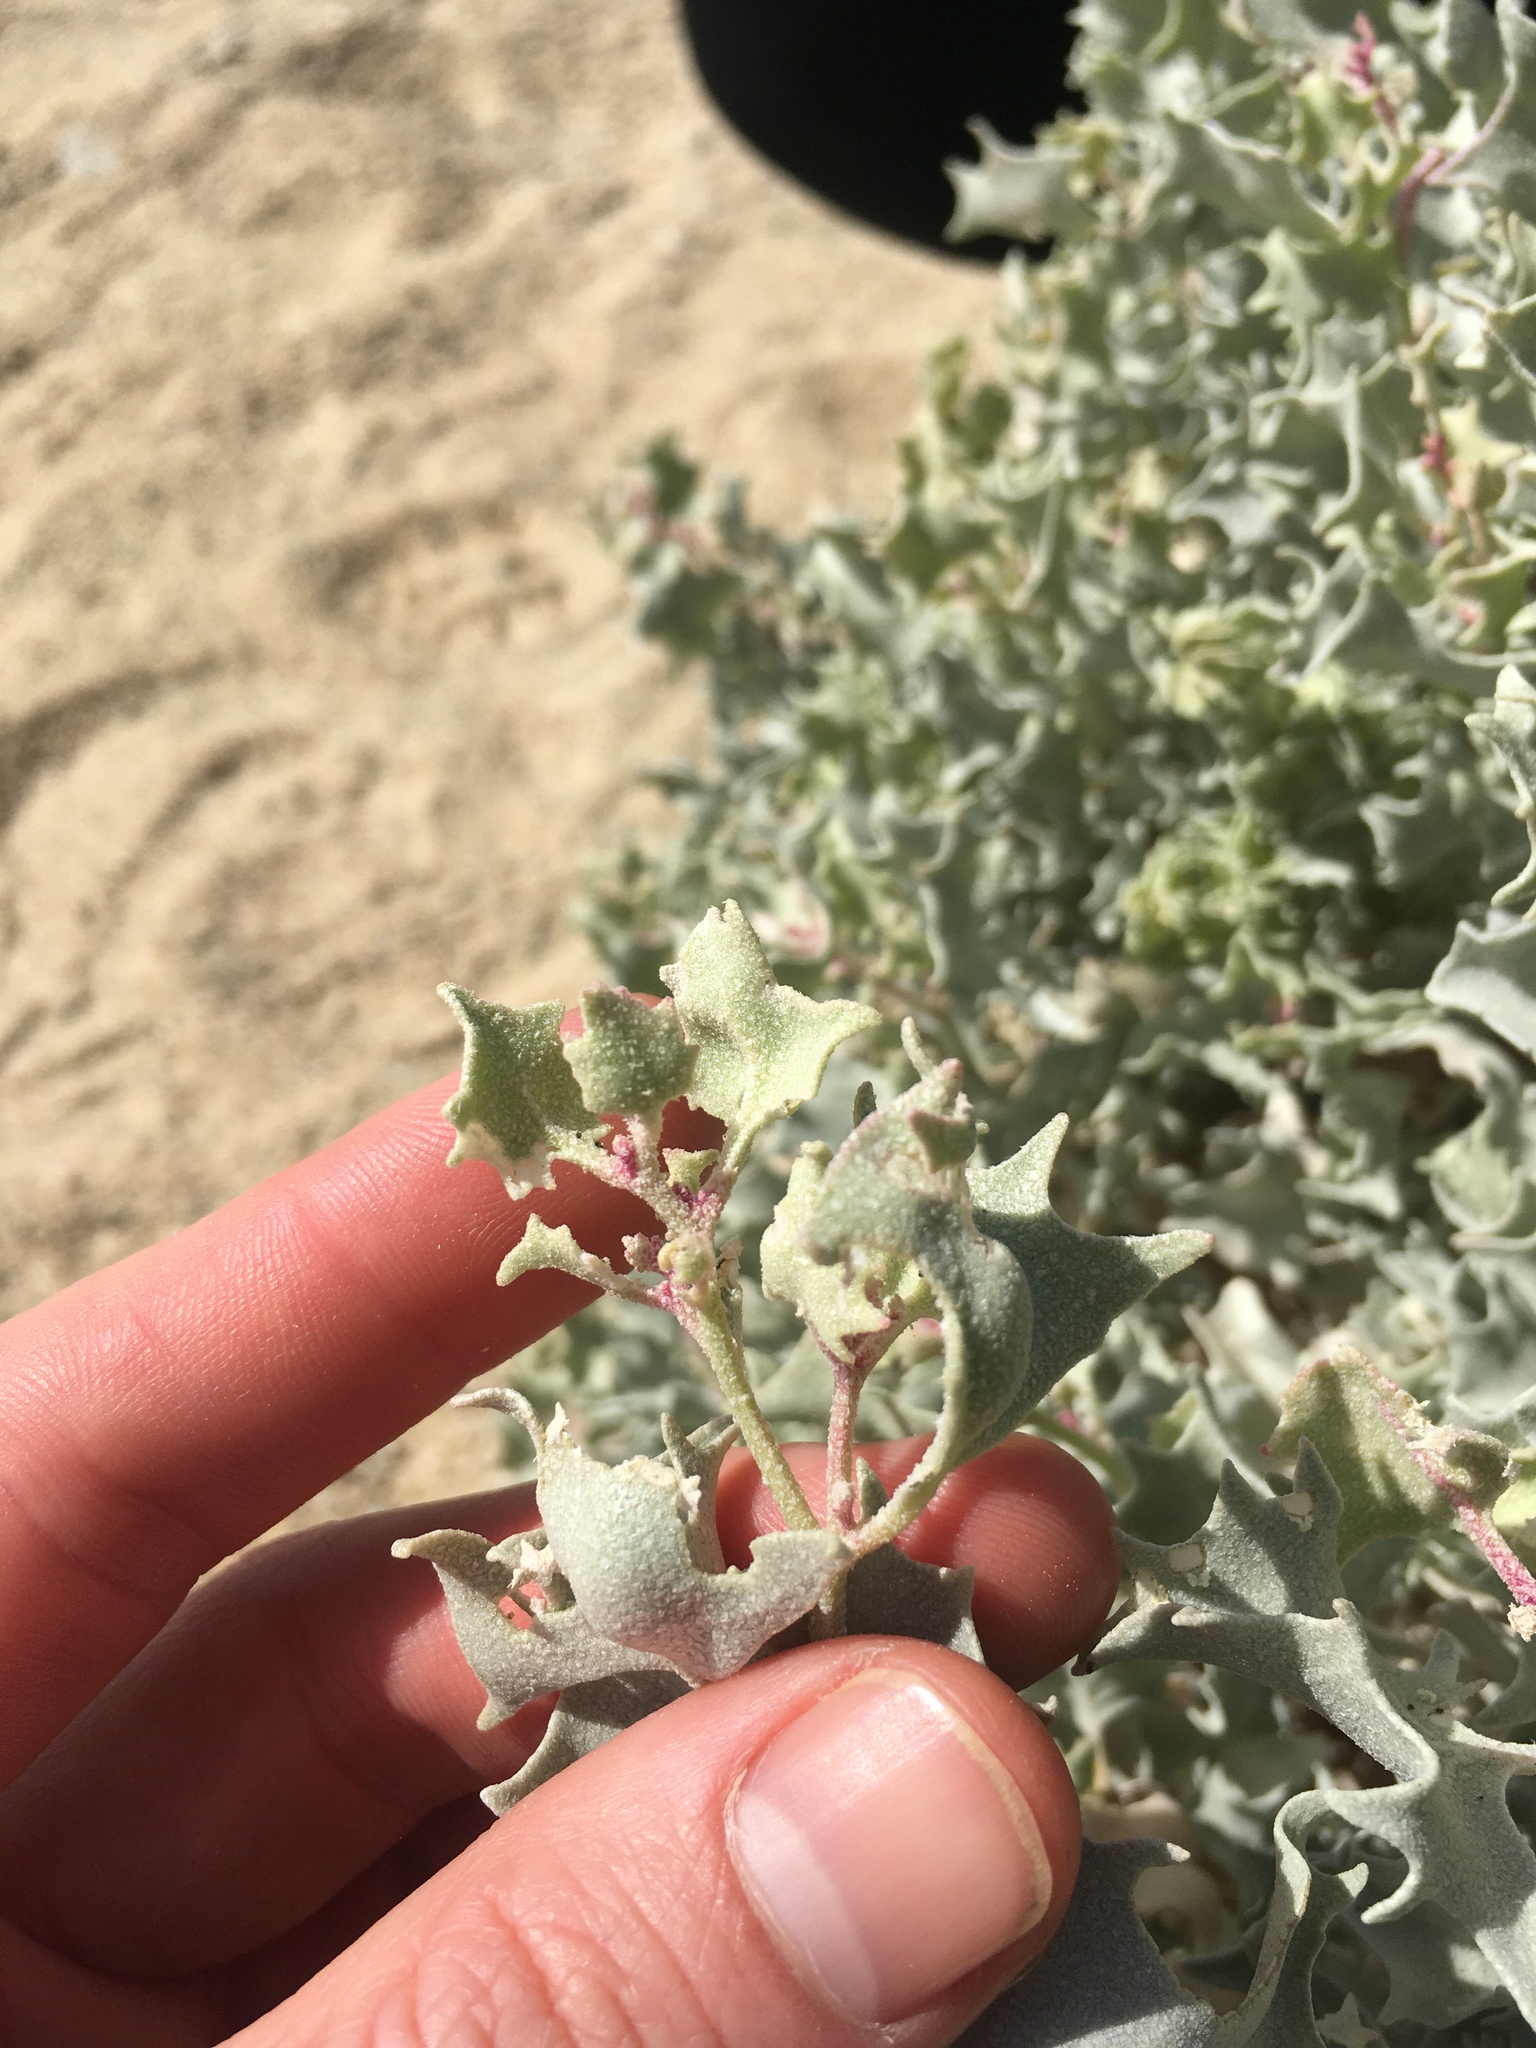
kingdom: Plantae
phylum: Tracheophyta
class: Magnoliopsida
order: Caryophyllales
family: Amaranthaceae
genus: Atriplex
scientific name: Atriplex hymenelytra
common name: Desert-holly
